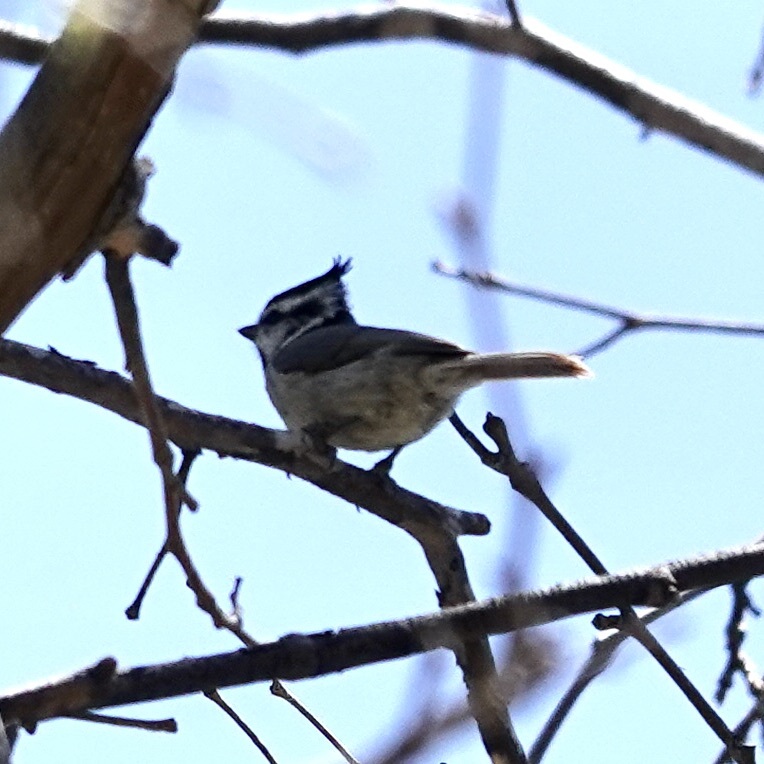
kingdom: Animalia
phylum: Chordata
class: Aves
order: Passeriformes
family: Paridae
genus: Baeolophus
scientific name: Baeolophus wollweberi
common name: Bridled titmouse
